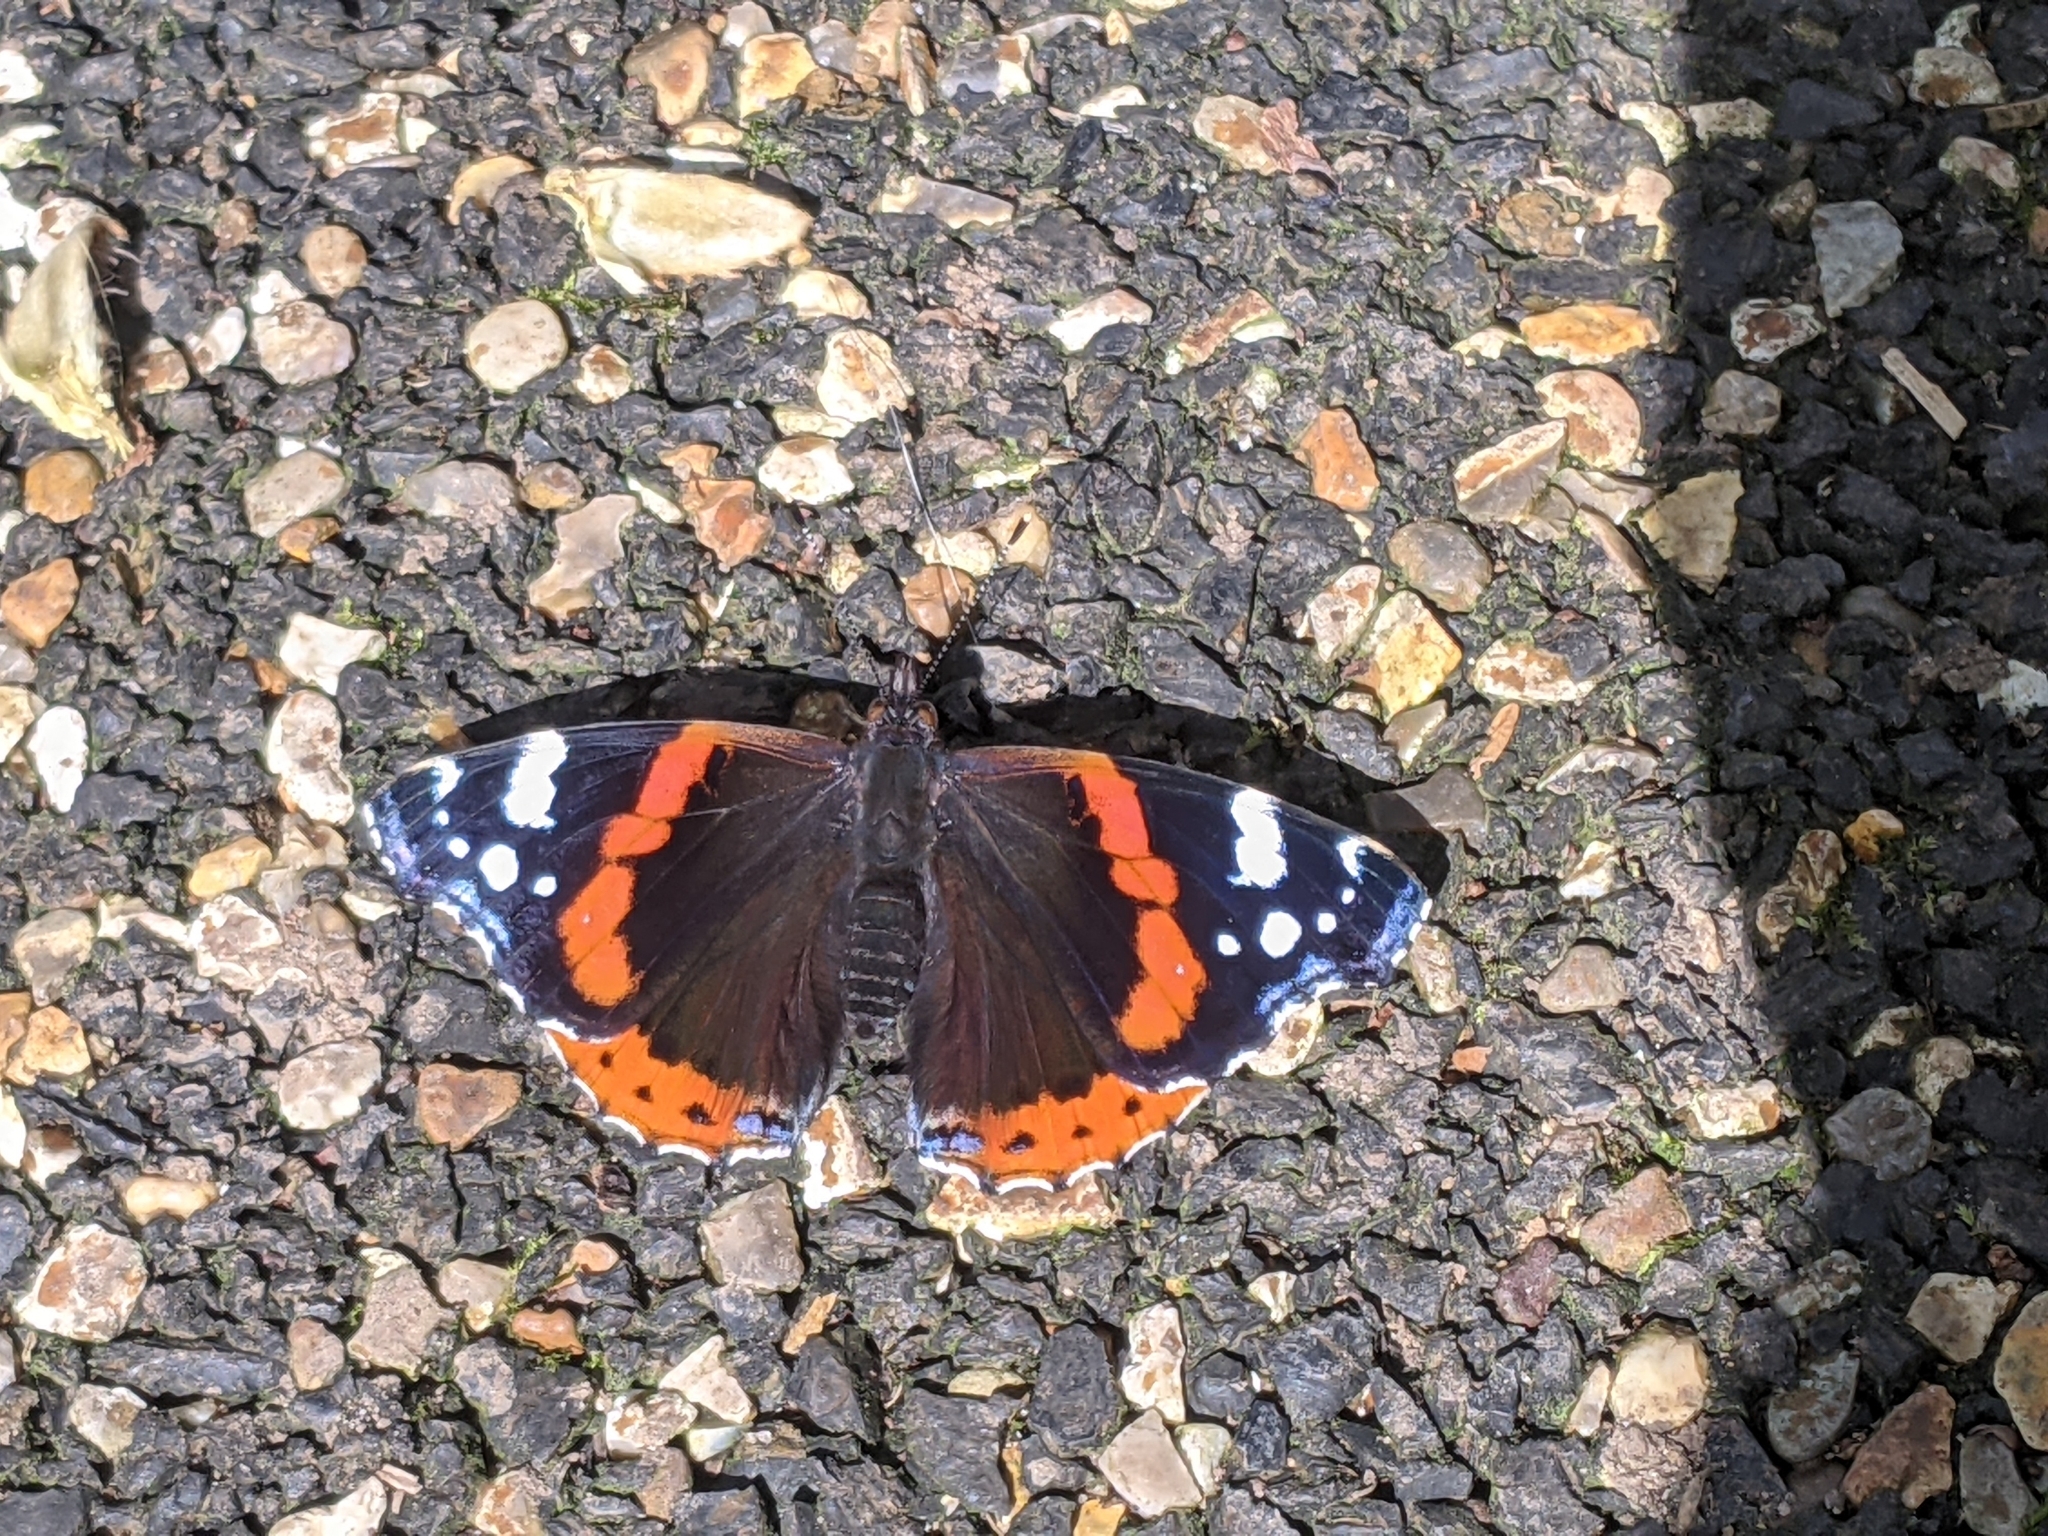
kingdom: Animalia
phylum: Arthropoda
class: Insecta
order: Lepidoptera
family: Nymphalidae
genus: Vanessa
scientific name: Vanessa atalanta
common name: Red admiral
